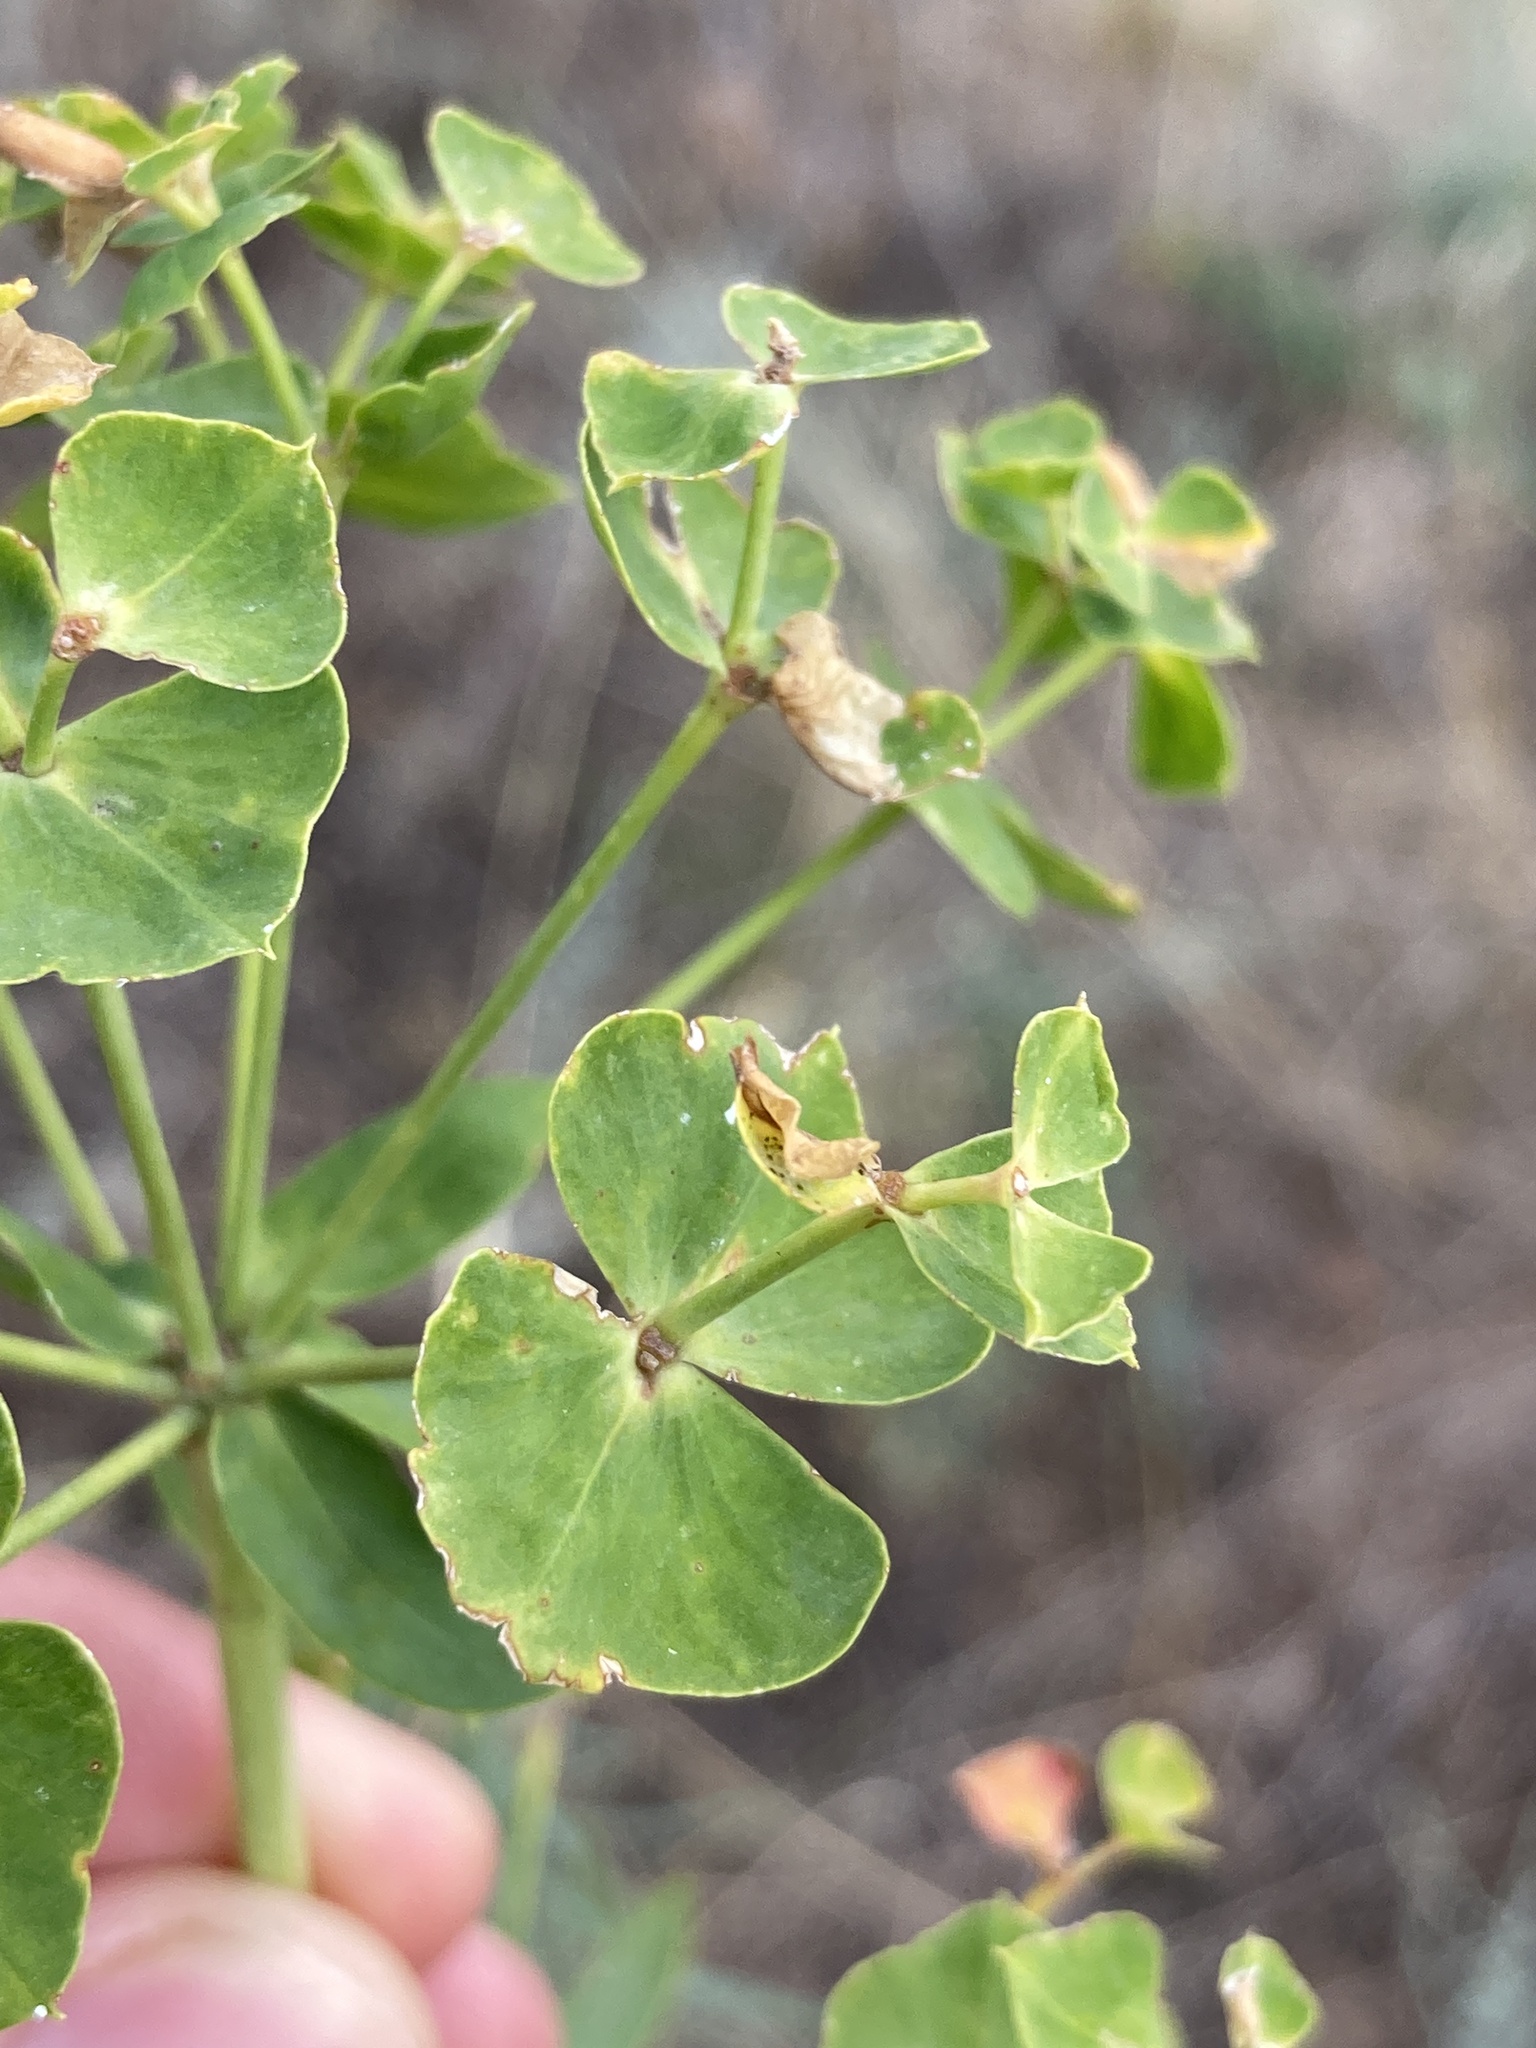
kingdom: Plantae
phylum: Tracheophyta
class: Magnoliopsida
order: Malpighiales
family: Euphorbiaceae
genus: Euphorbia
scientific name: Euphorbia virgata
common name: Leafy spurge
